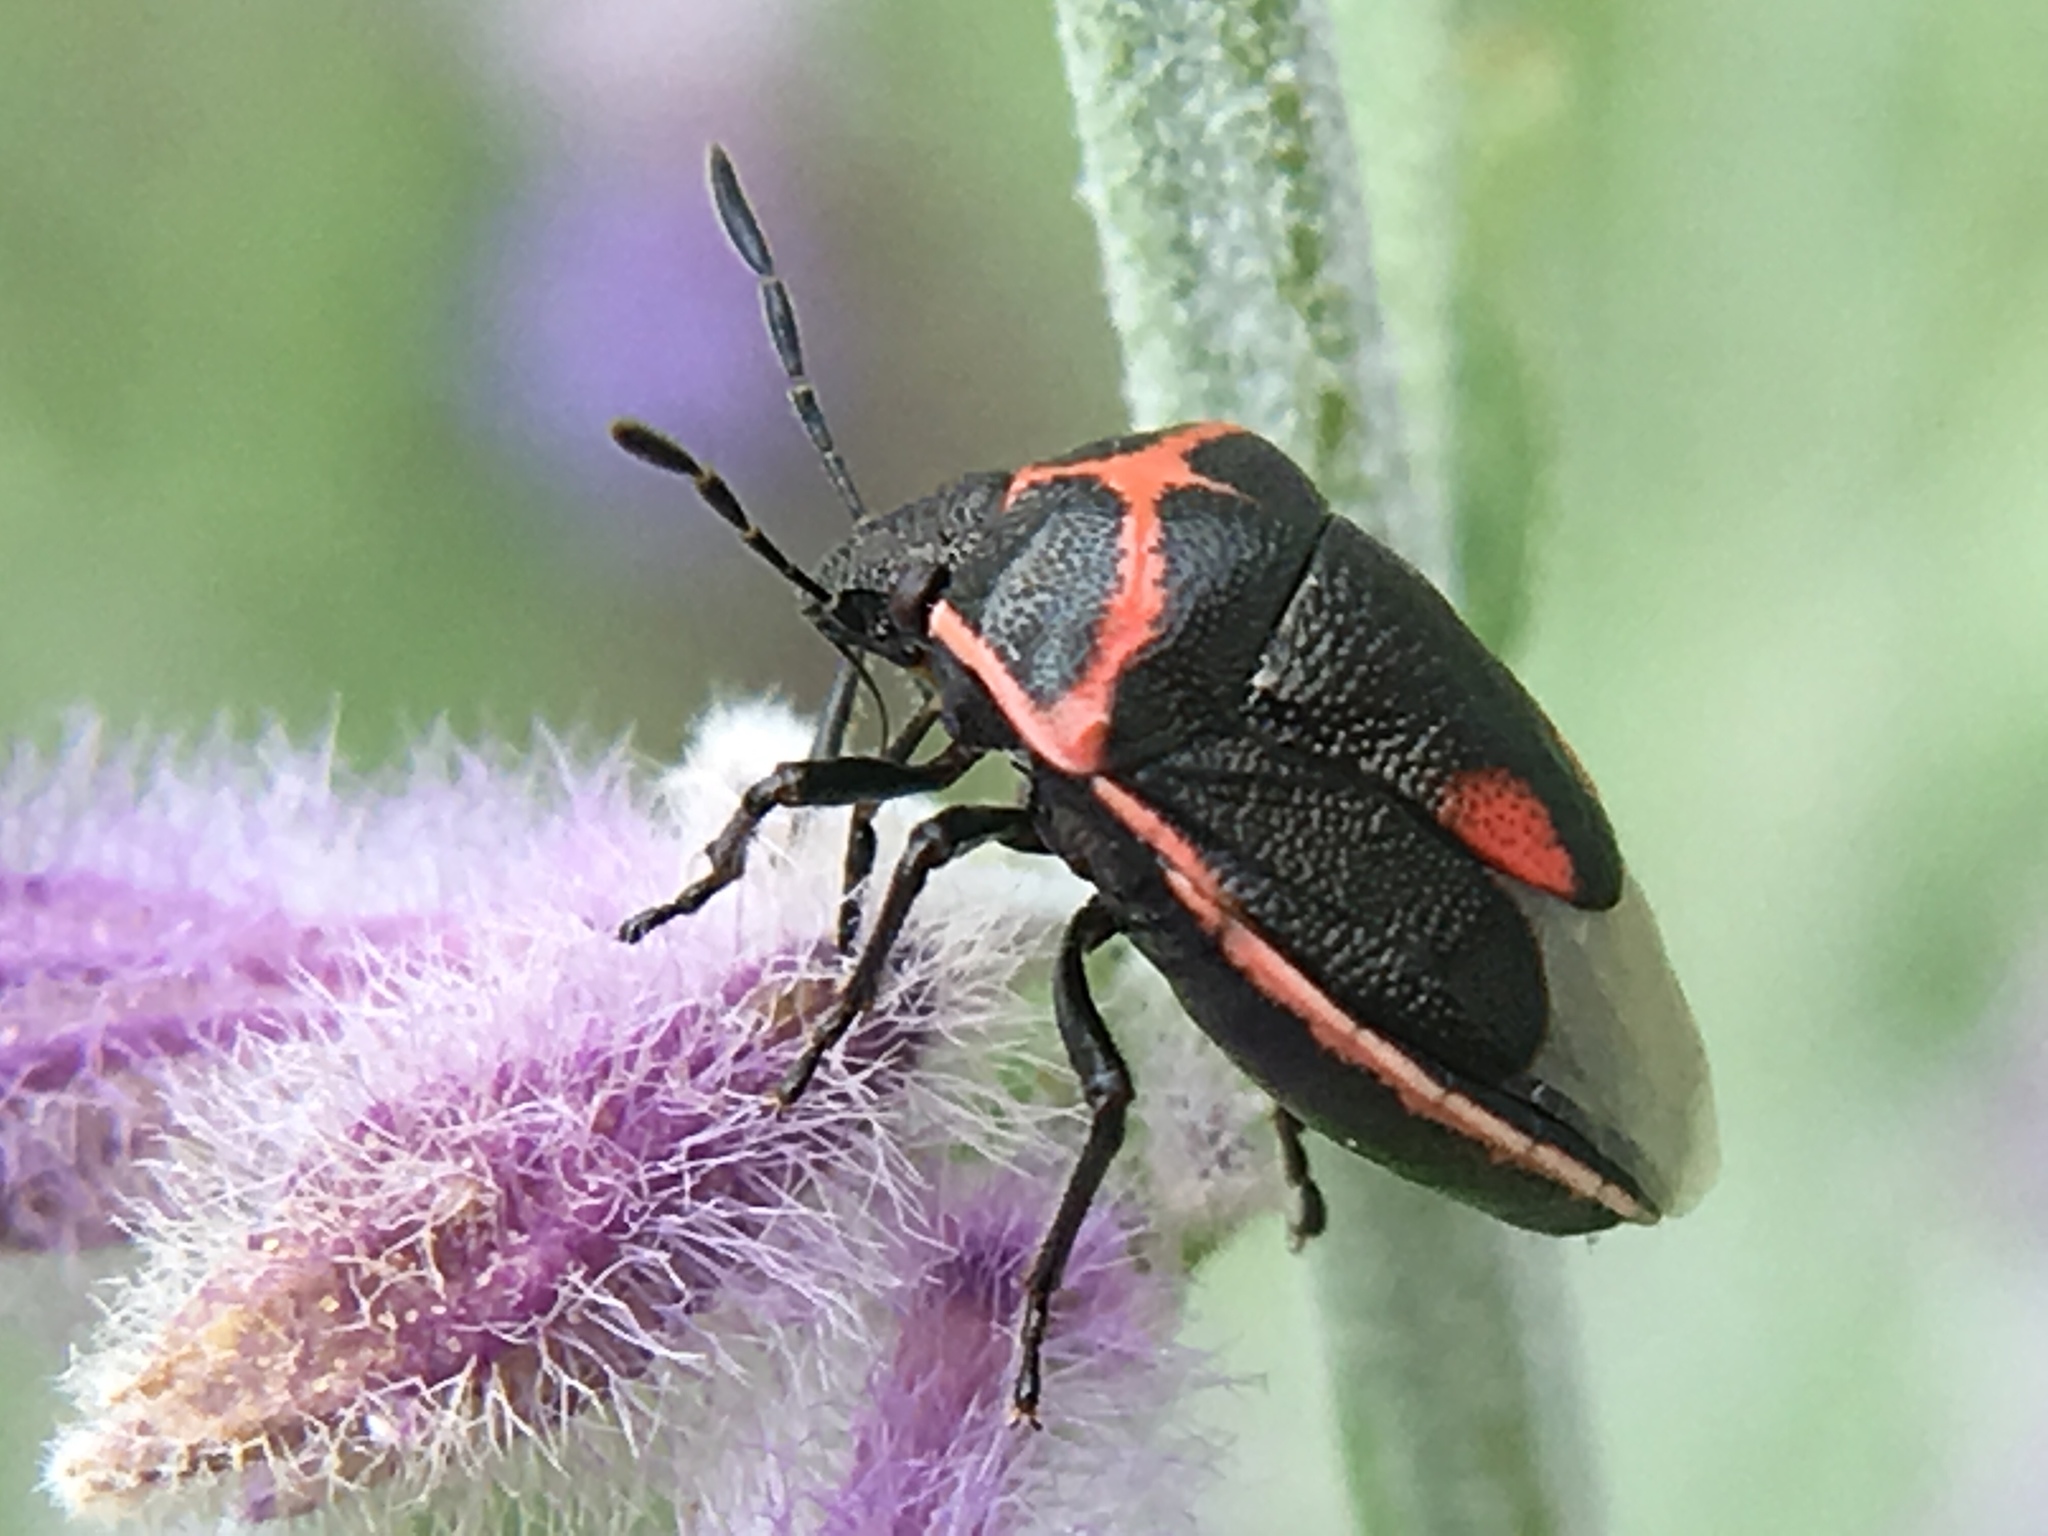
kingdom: Animalia
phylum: Arthropoda
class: Insecta
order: Hemiptera
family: Pentatomidae
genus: Cosmopepla
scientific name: Cosmopepla lintneriana
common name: Twice-stabbed stink bug
